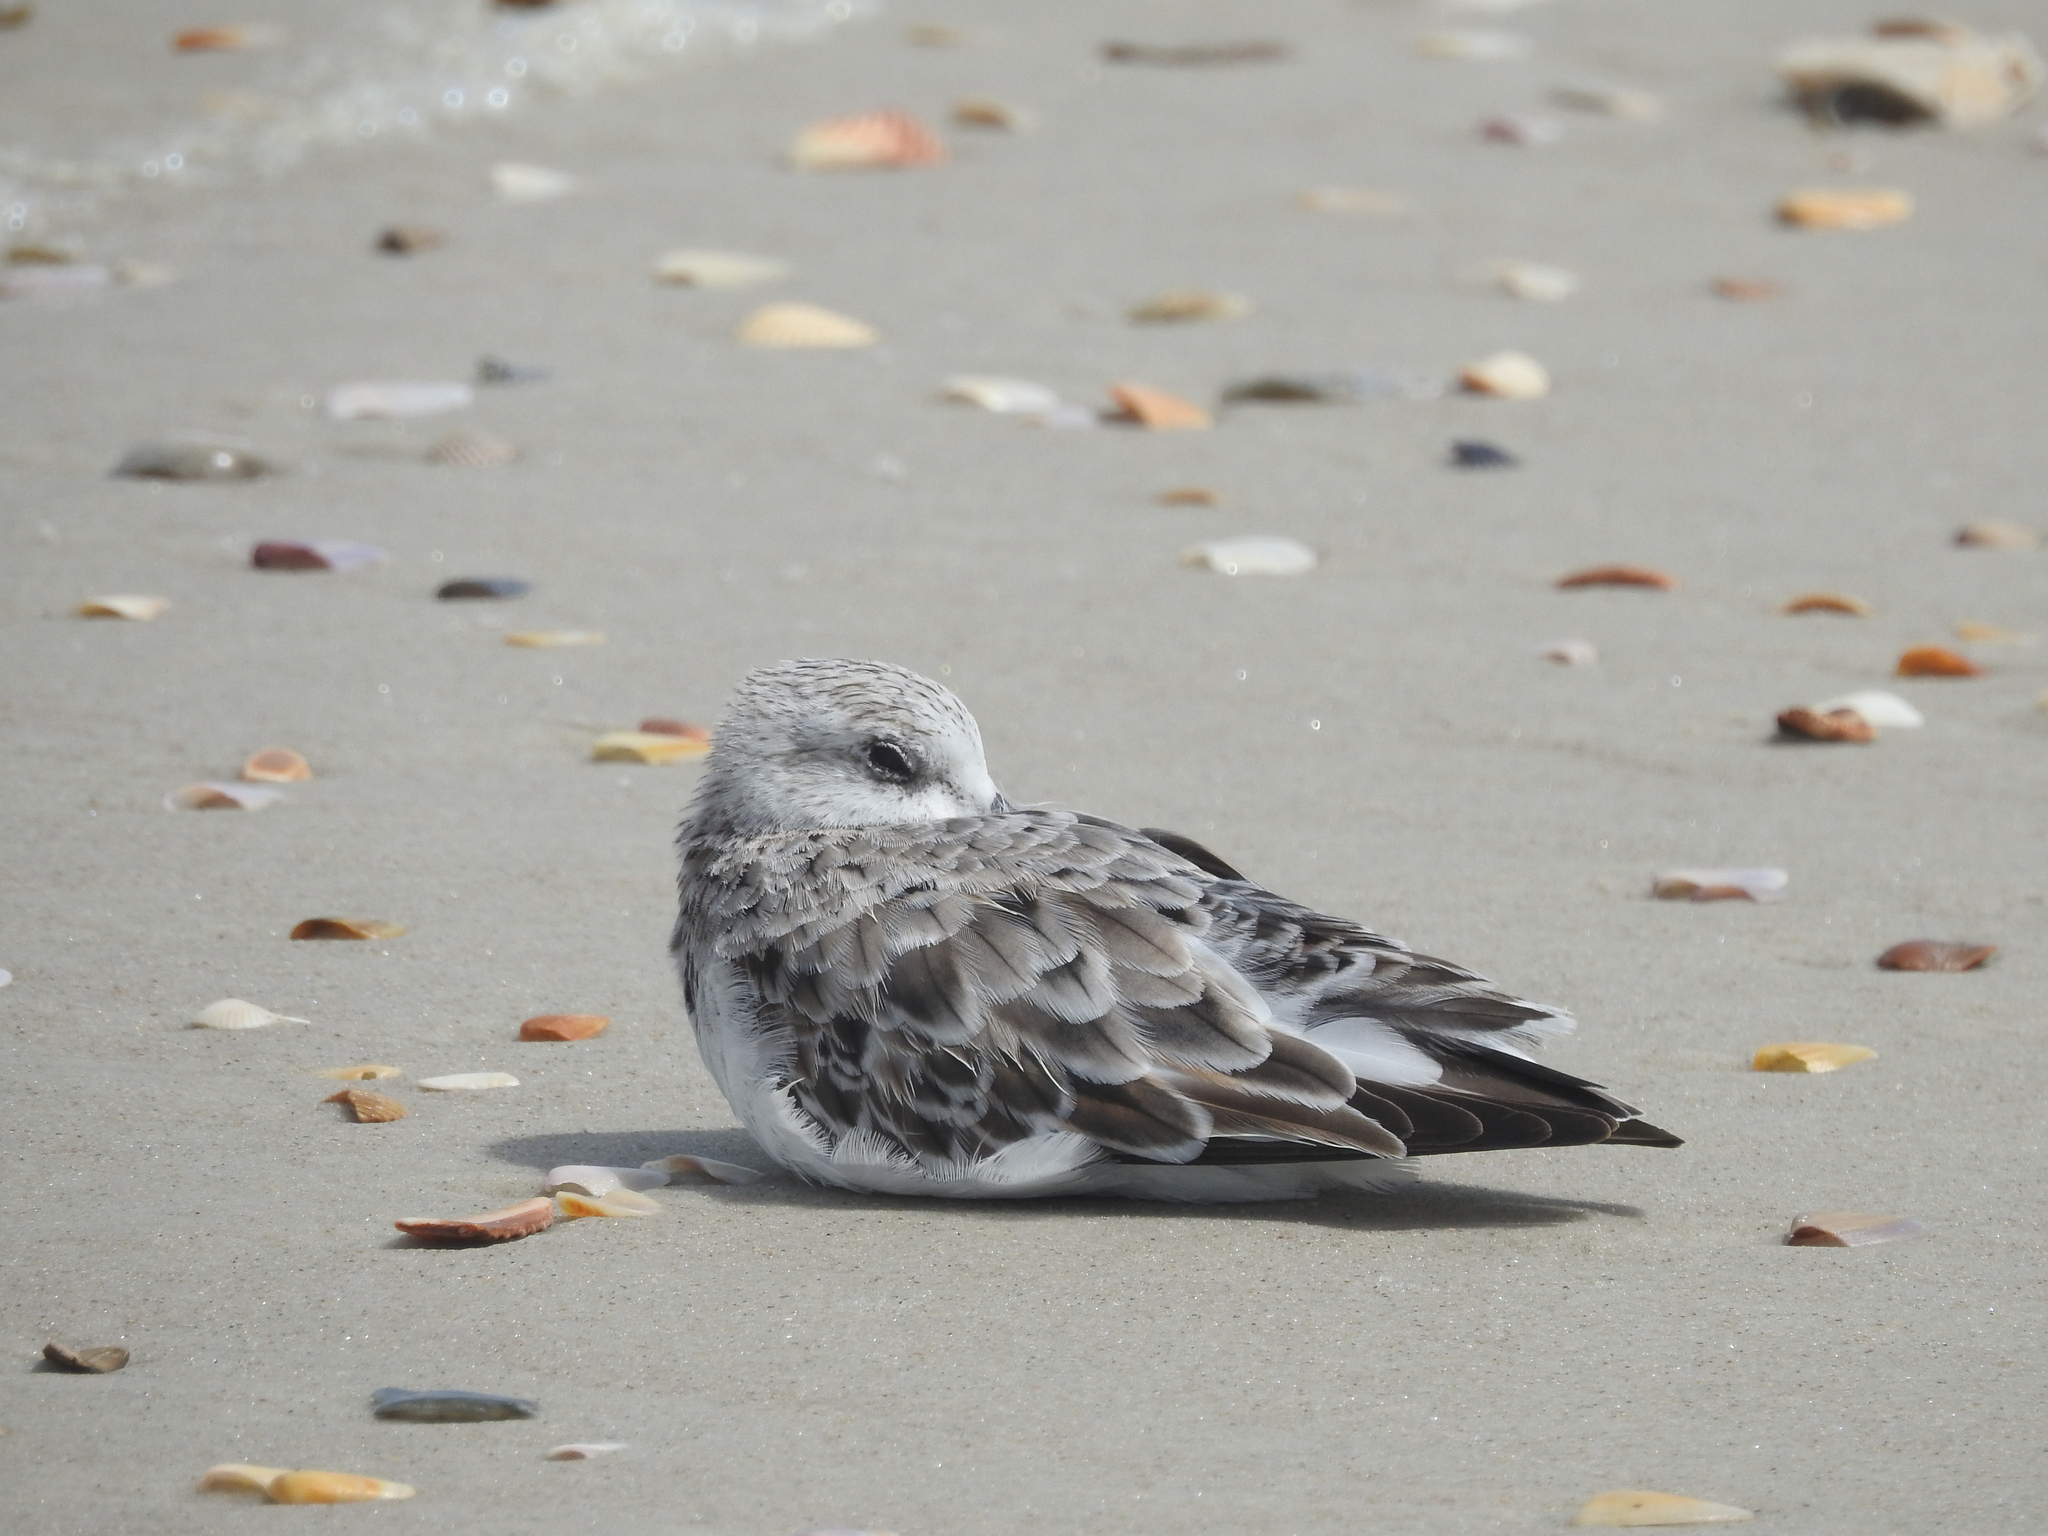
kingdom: Animalia
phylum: Chordata
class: Aves
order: Charadriiformes
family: Scolopacidae
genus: Calidris
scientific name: Calidris alba
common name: Sanderling
